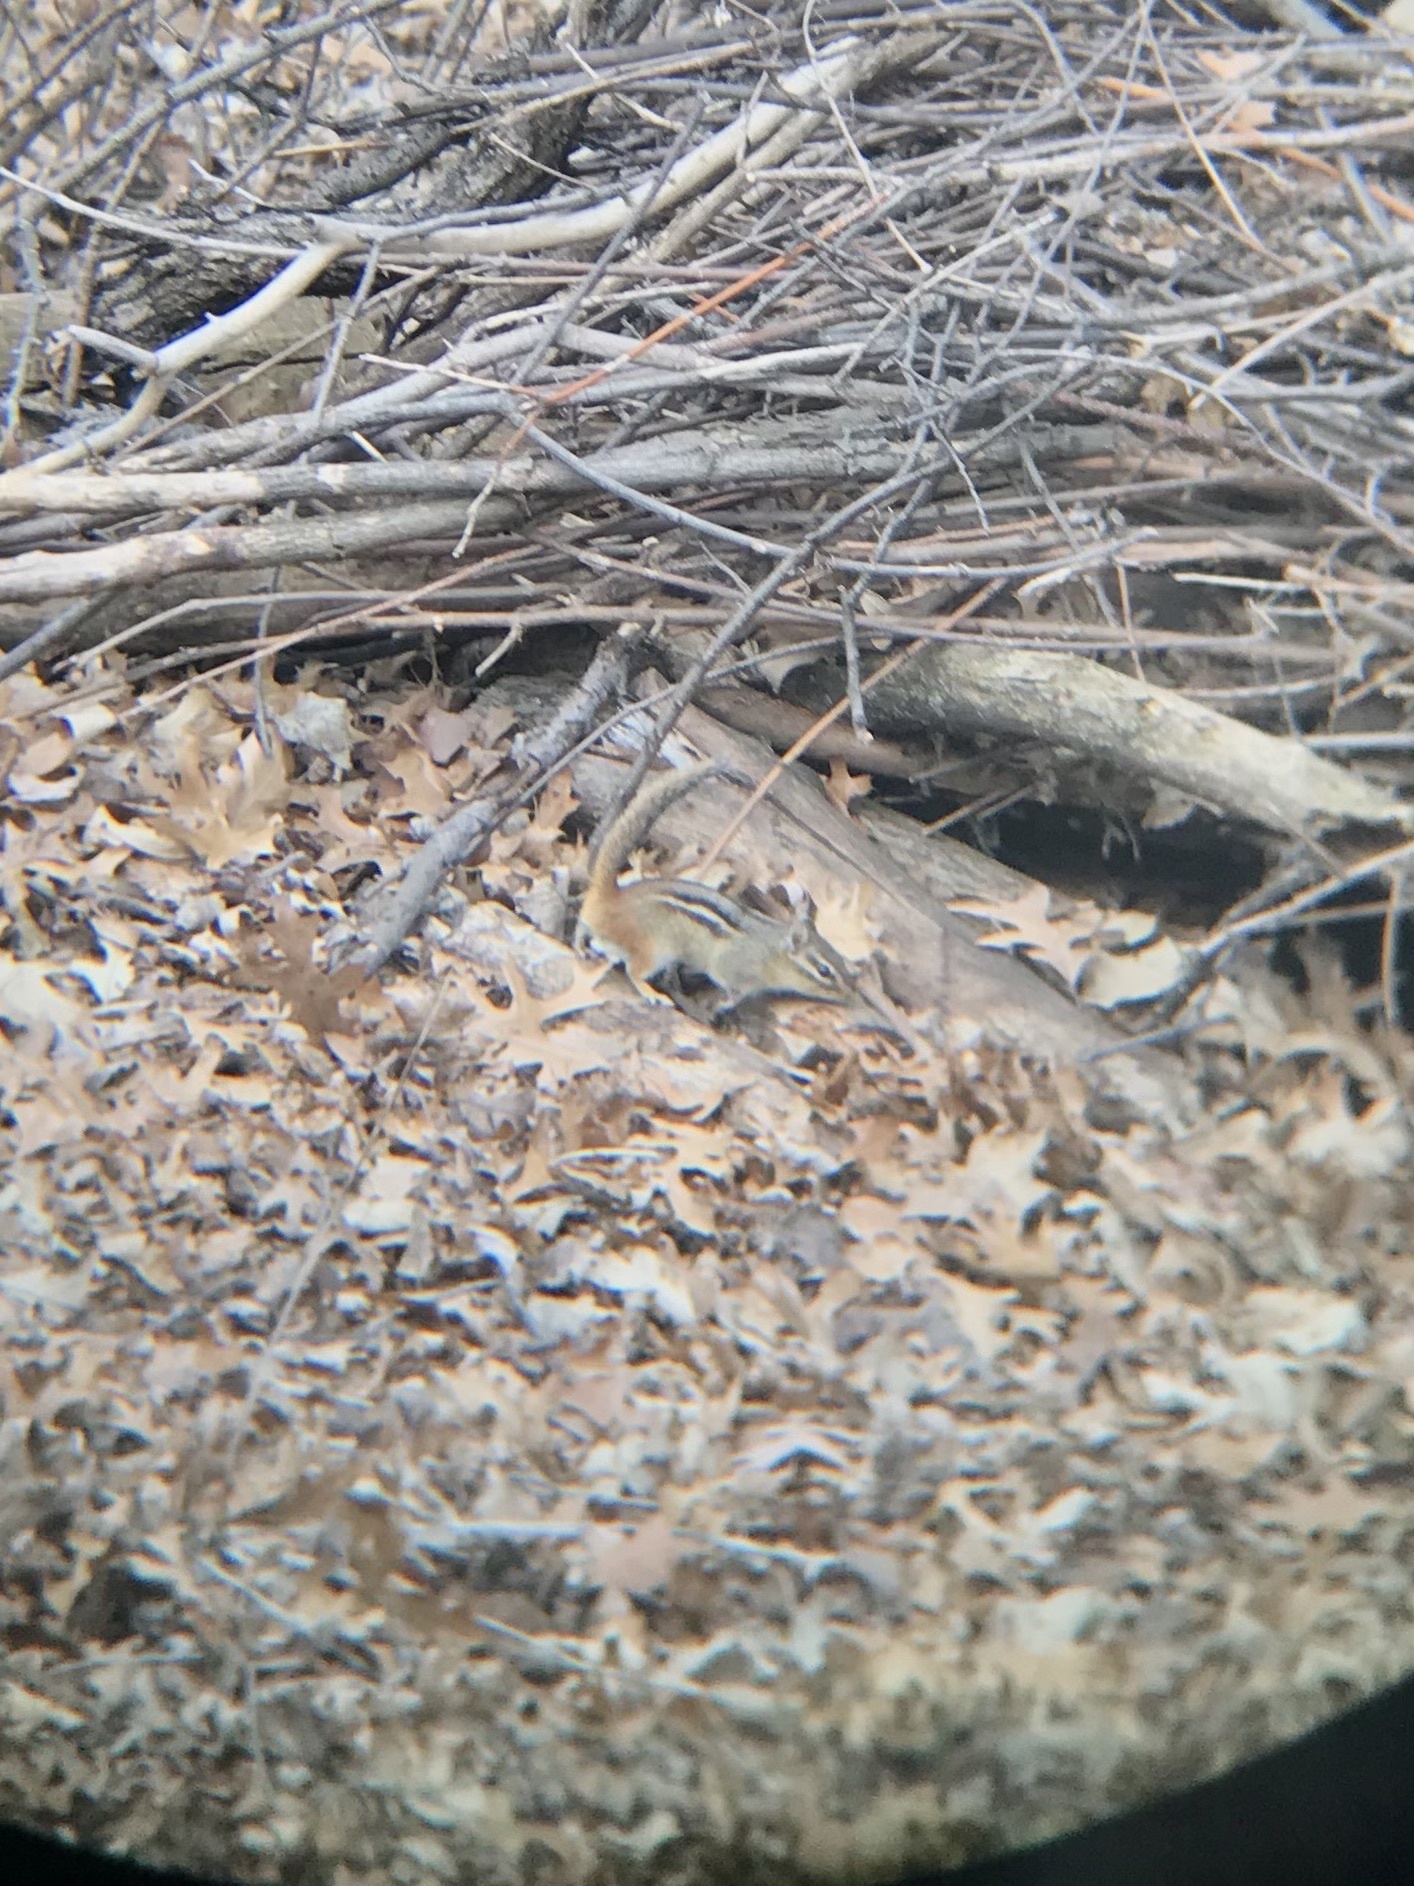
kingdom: Animalia
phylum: Chordata
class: Mammalia
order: Rodentia
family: Sciuridae
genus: Tamias
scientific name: Tamias striatus
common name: Eastern chipmunk
